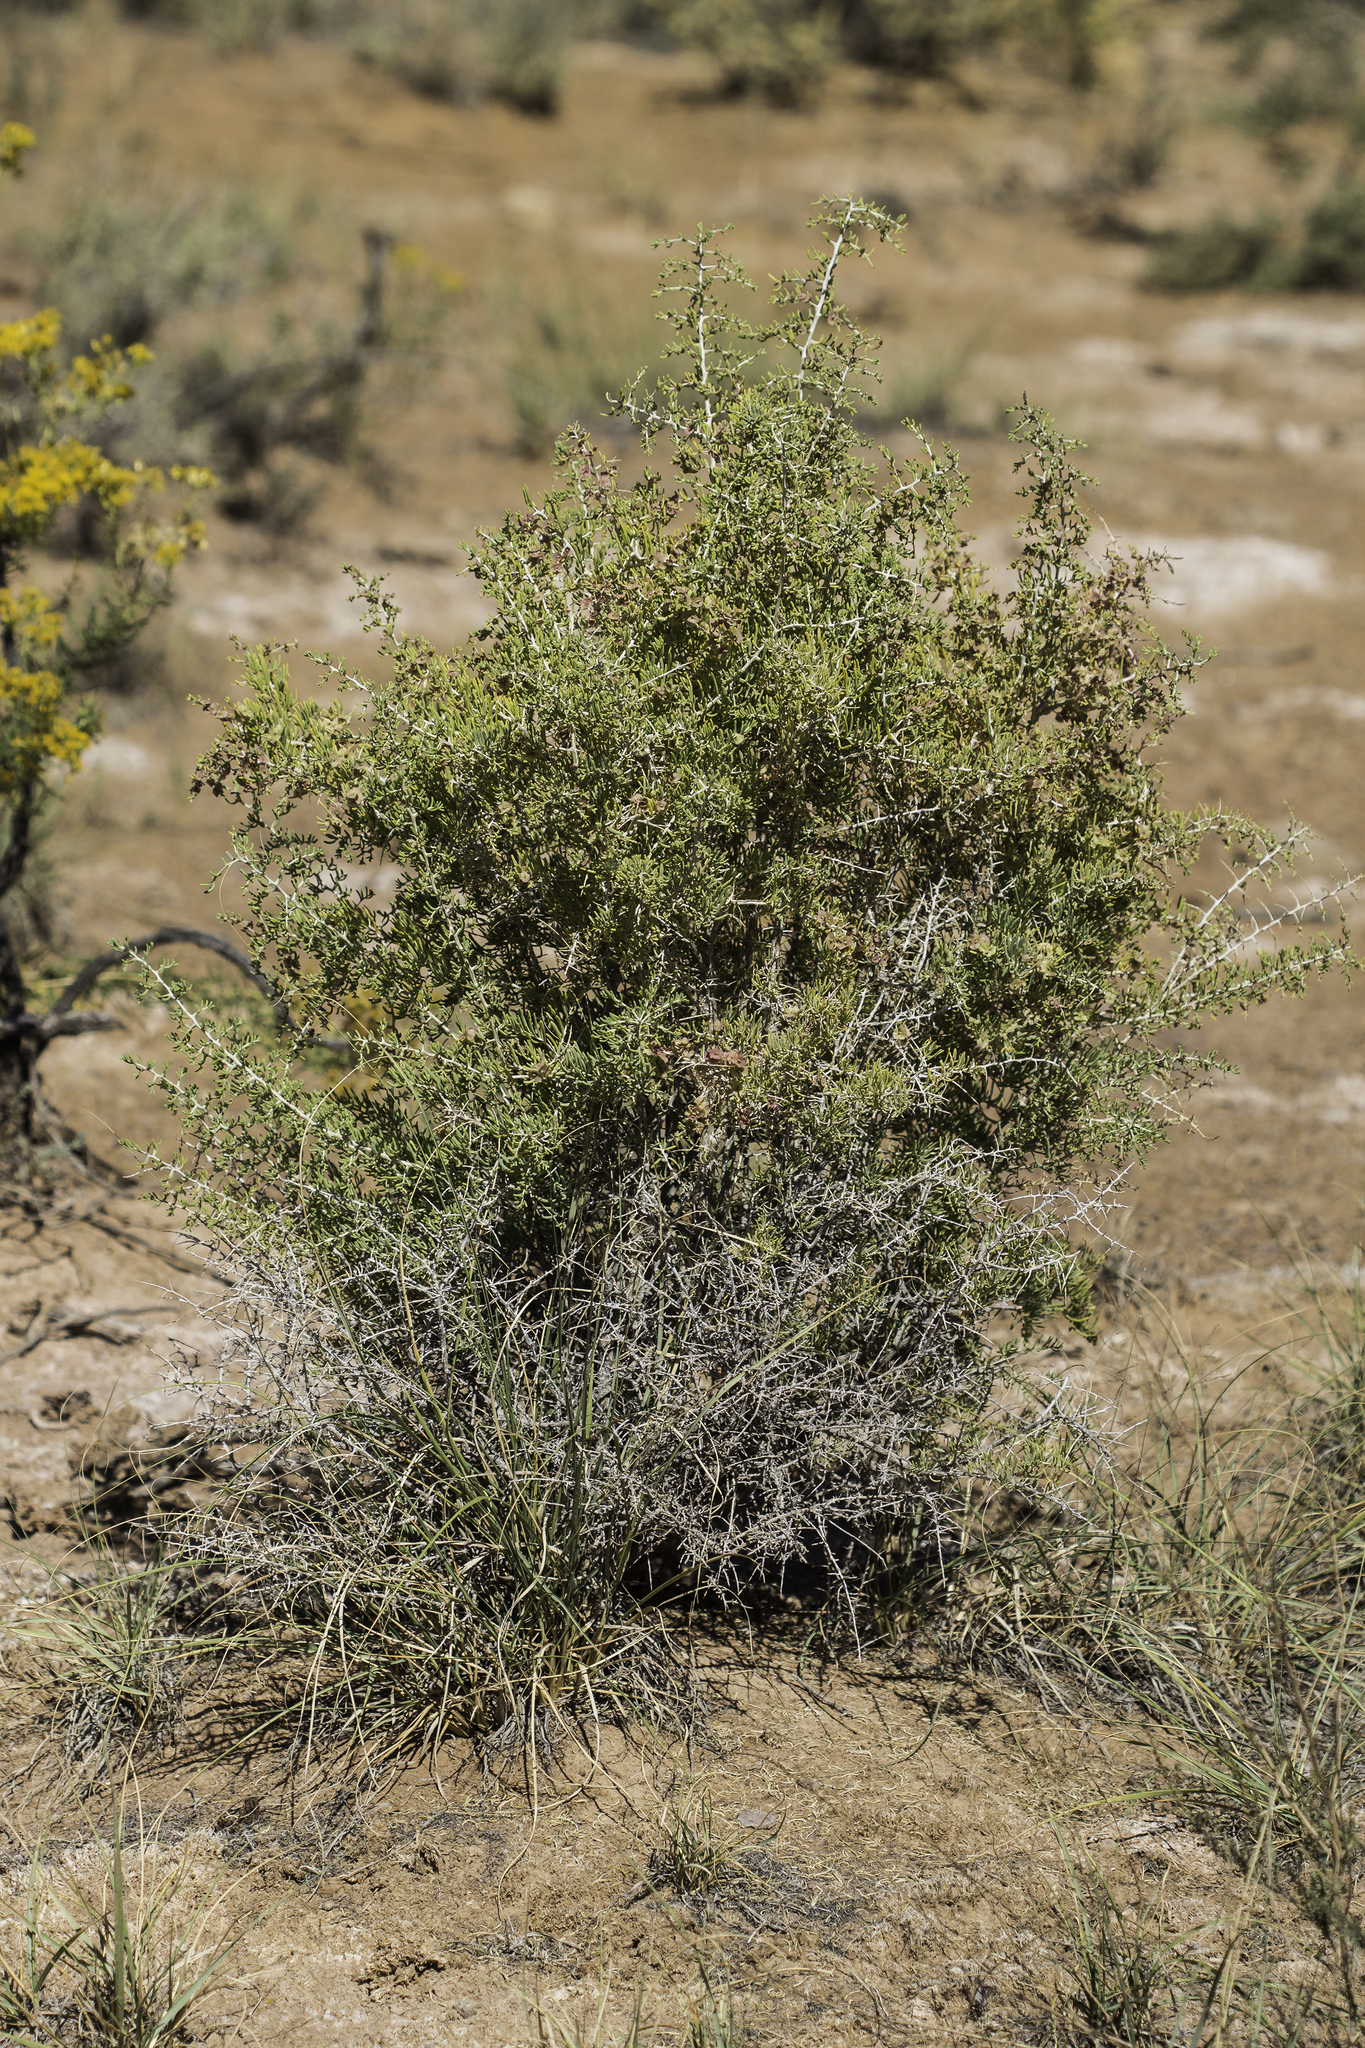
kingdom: Plantae
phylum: Tracheophyta
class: Magnoliopsida
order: Caryophyllales
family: Sarcobataceae
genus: Sarcobatus
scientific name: Sarcobatus vermiculatus
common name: Greasewood
